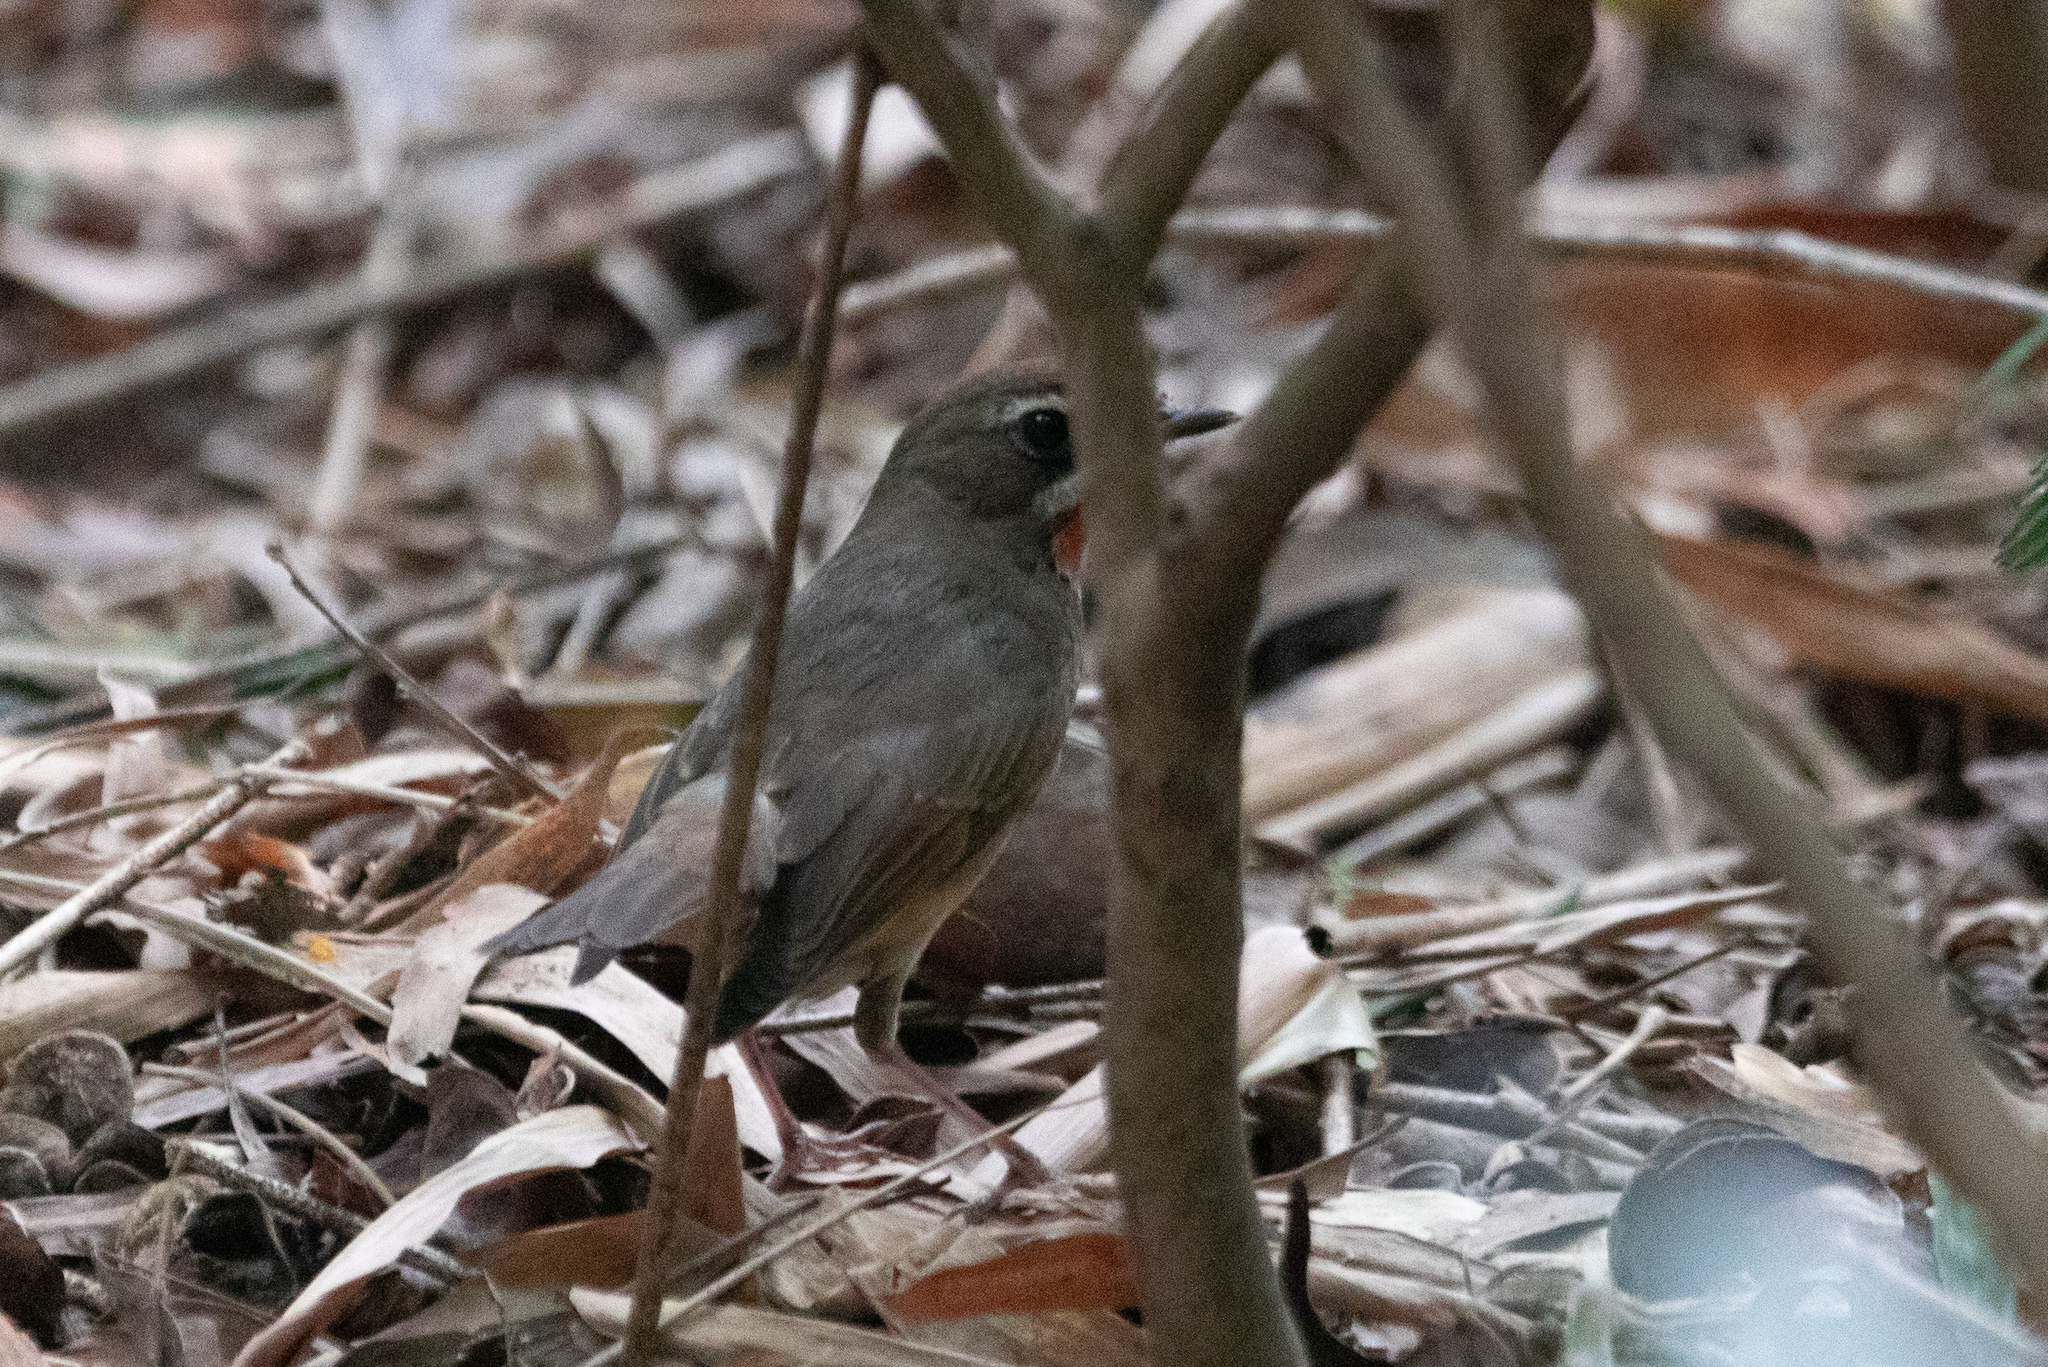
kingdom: Animalia
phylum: Chordata
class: Aves
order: Passeriformes
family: Muscicapidae
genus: Luscinia
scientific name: Luscinia calliope
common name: Siberian rubythroat
